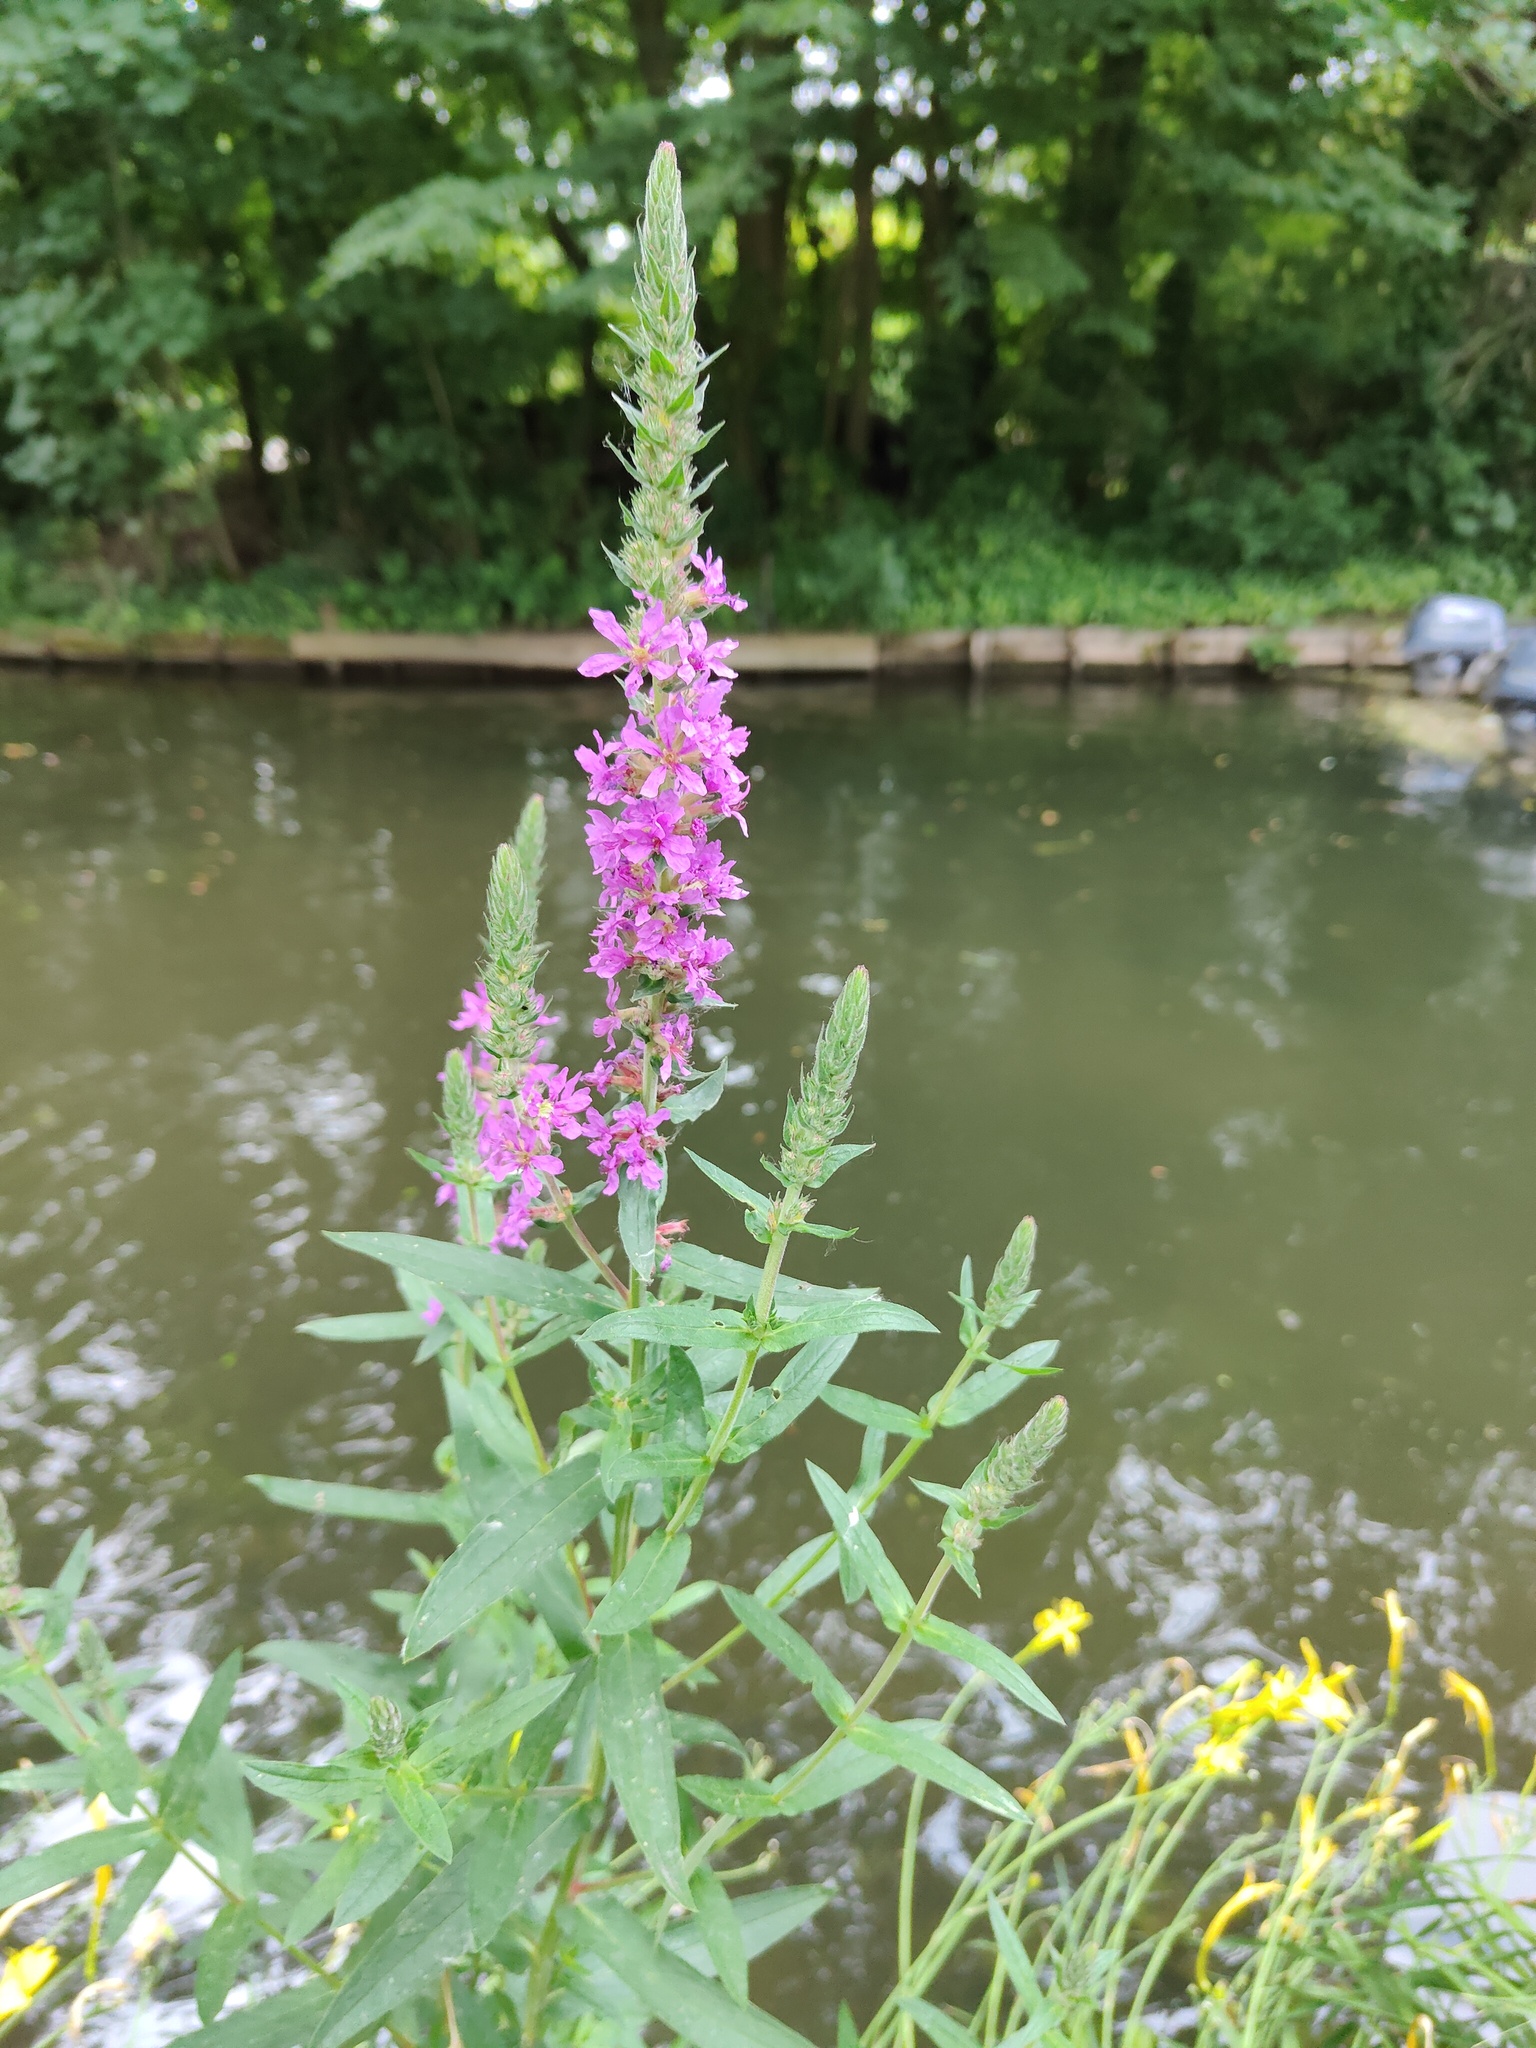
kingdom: Plantae
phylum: Tracheophyta
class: Magnoliopsida
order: Myrtales
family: Lythraceae
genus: Lythrum
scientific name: Lythrum salicaria
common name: Purple loosestrife
